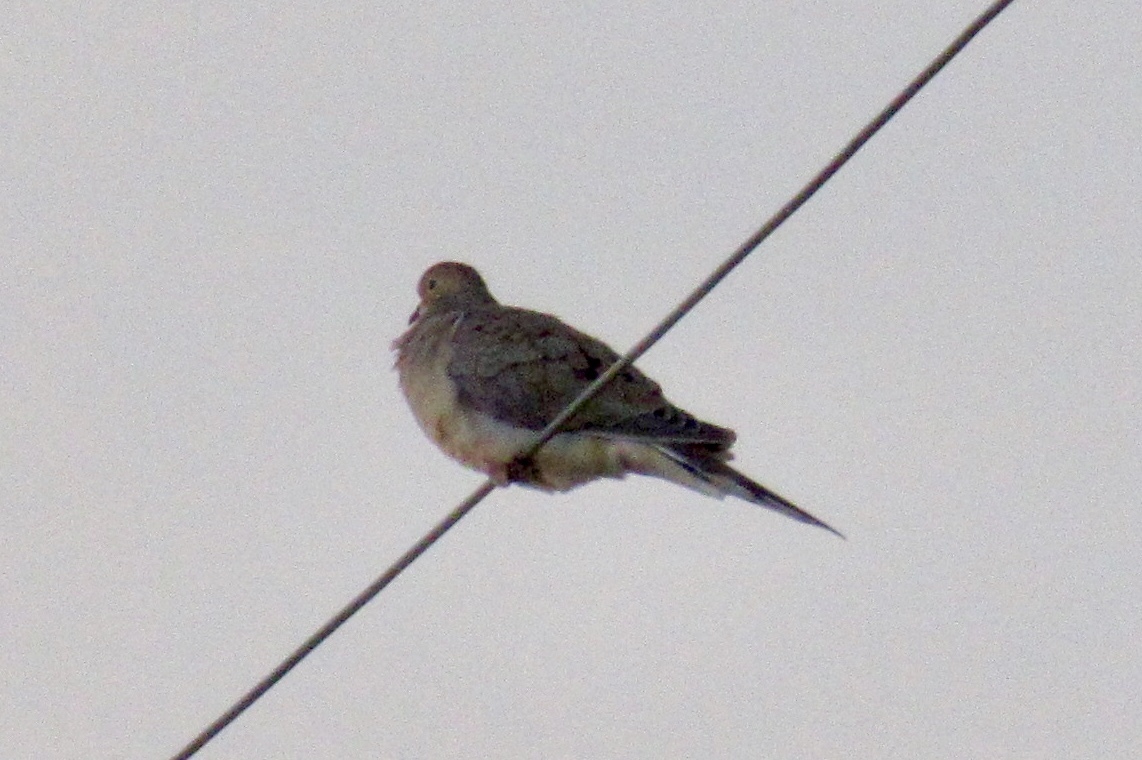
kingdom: Animalia
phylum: Chordata
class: Aves
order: Columbiformes
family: Columbidae
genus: Zenaida
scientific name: Zenaida macroura
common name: Mourning dove
